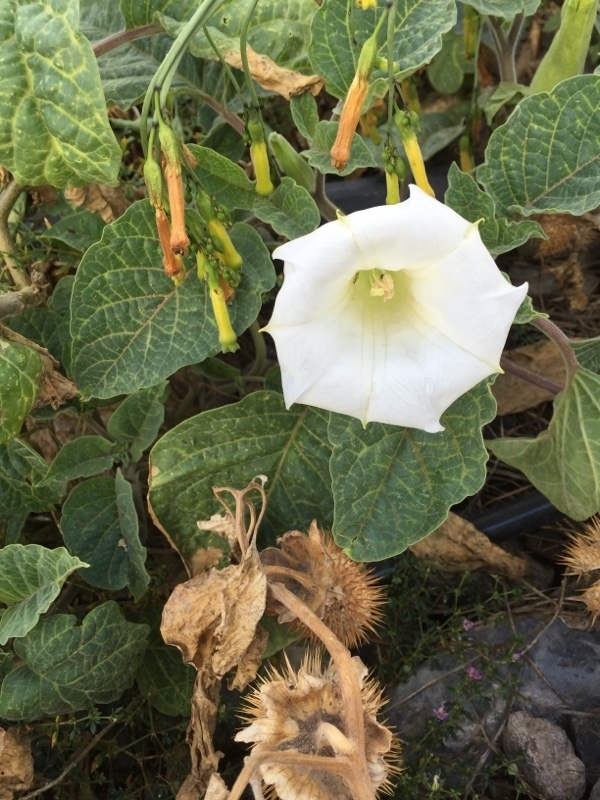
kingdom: Plantae
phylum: Tracheophyta
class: Magnoliopsida
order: Solanales
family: Solanaceae
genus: Datura
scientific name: Datura innoxia
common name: Downy thorn-apple
